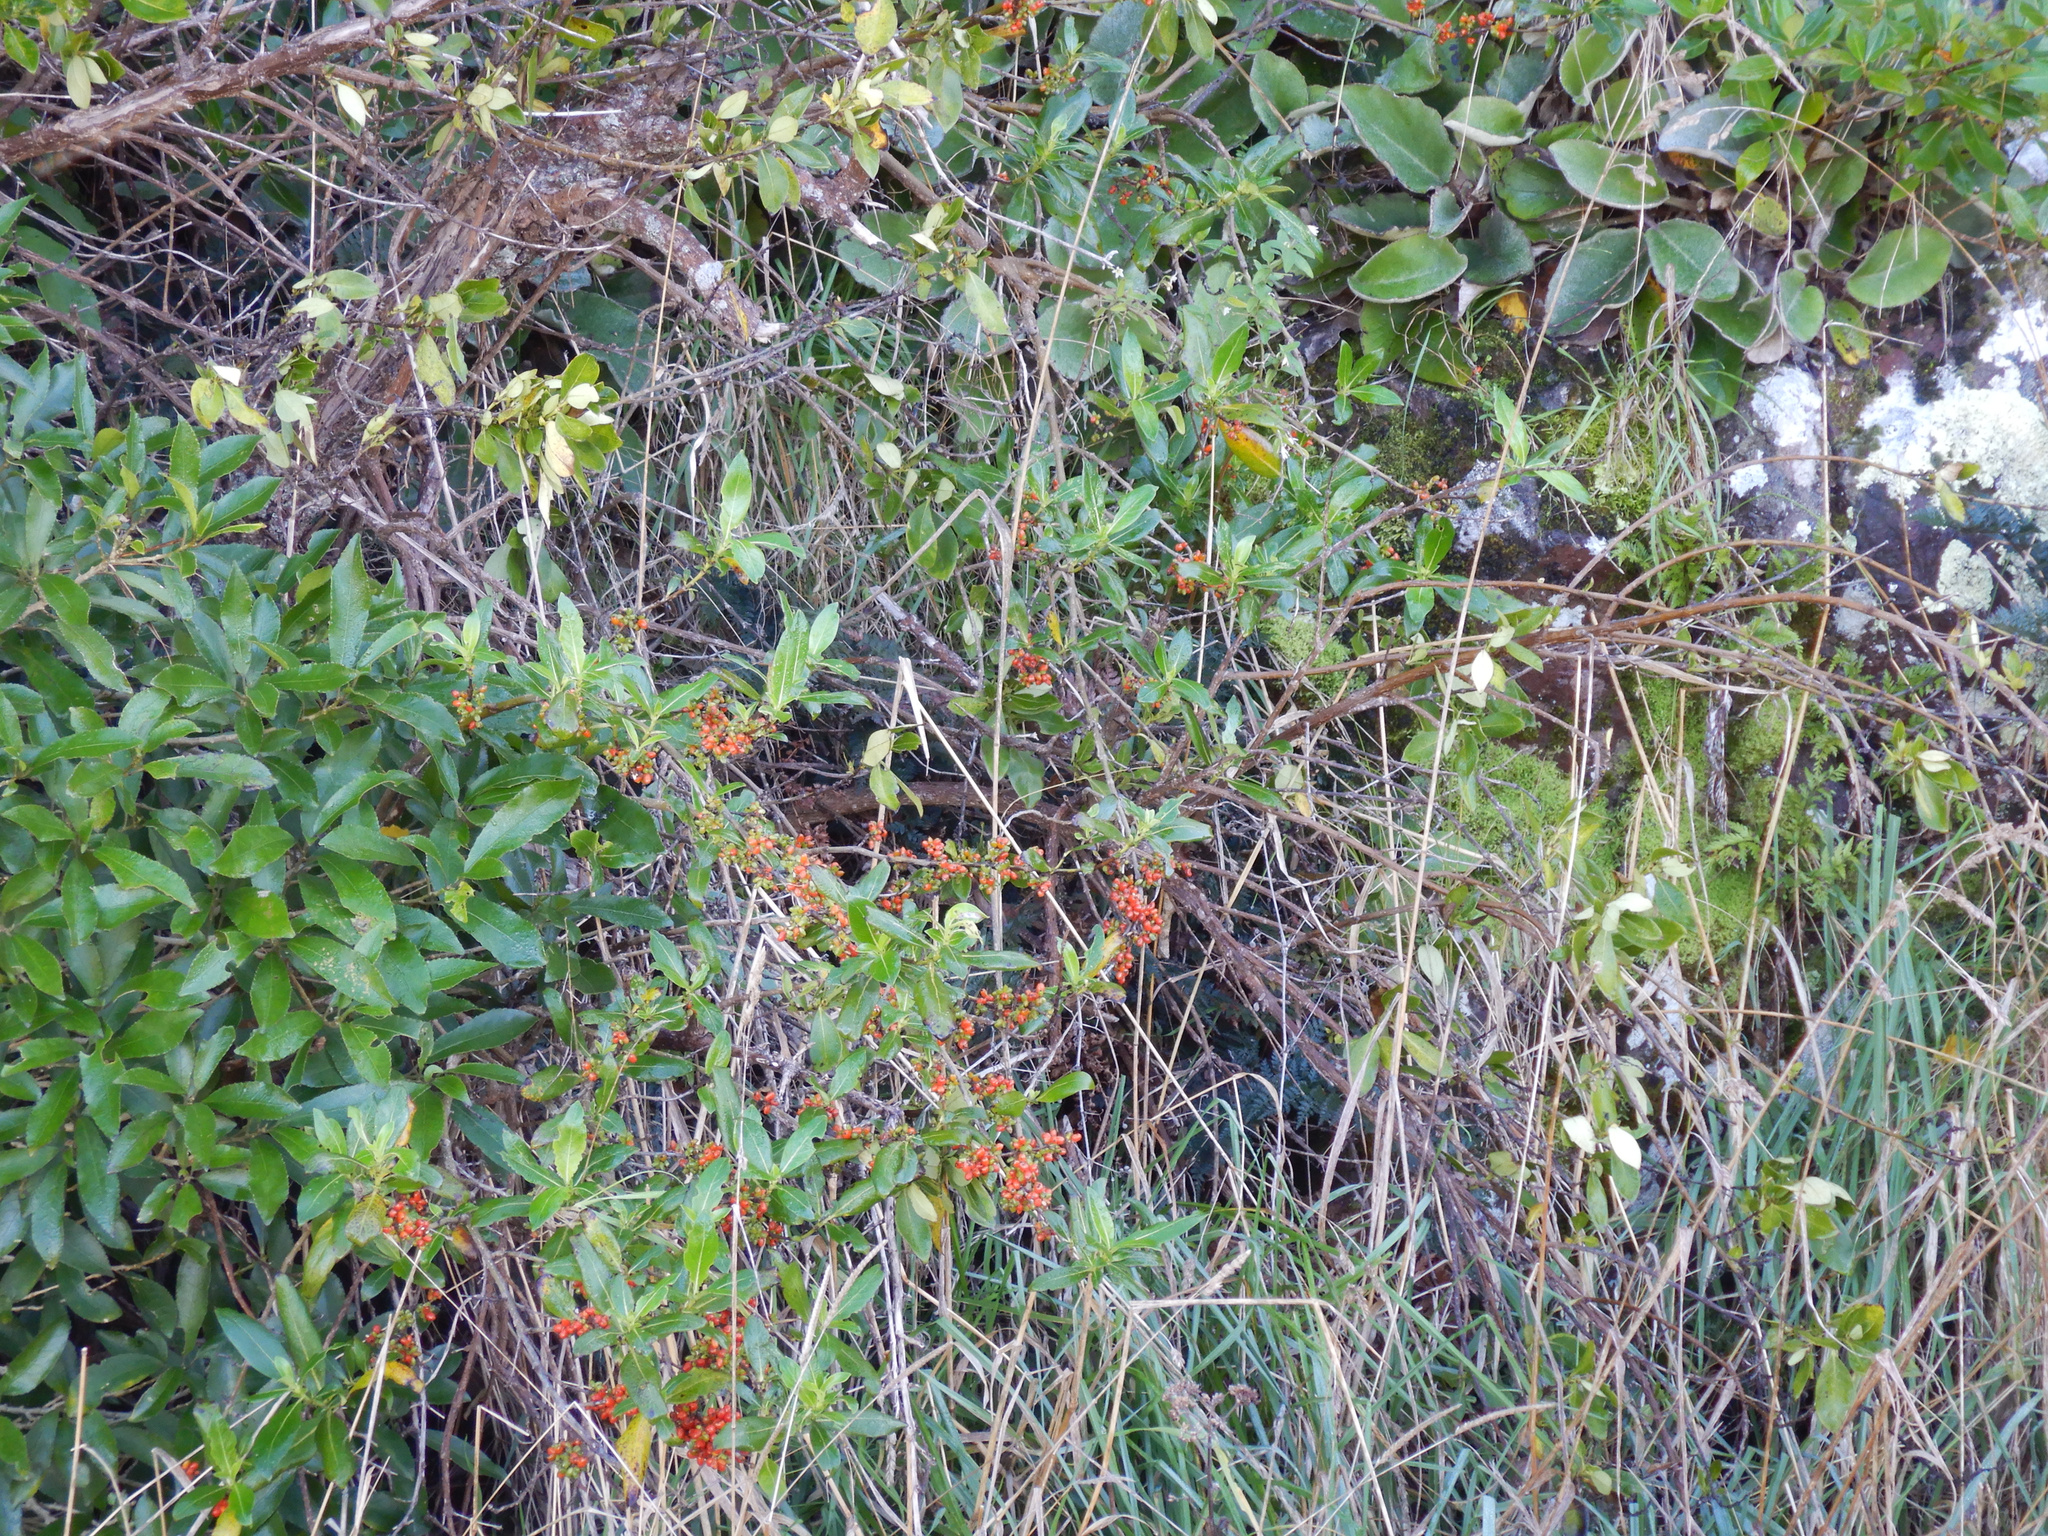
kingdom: Plantae
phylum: Tracheophyta
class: Magnoliopsida
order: Gentianales
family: Rubiaceae
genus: Coprosma
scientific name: Coprosma robusta
